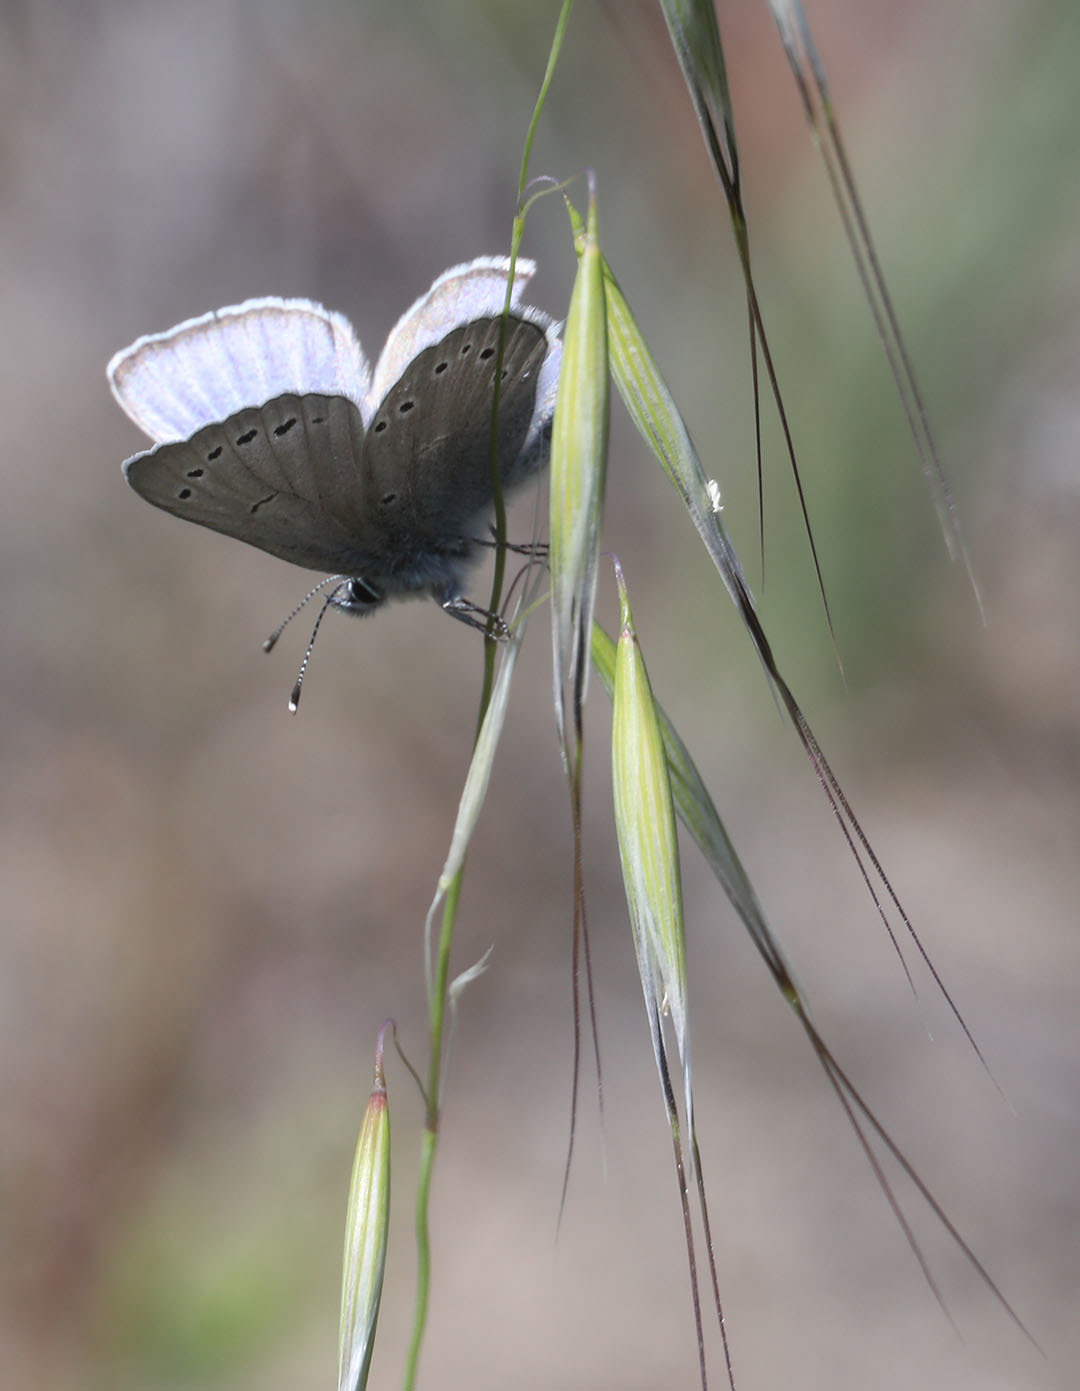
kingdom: Animalia
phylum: Arthropoda
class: Insecta
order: Lepidoptera
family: Lycaenidae
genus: Glaucopsyche
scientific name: Glaucopsyche lygdamus
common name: Silvery blue
